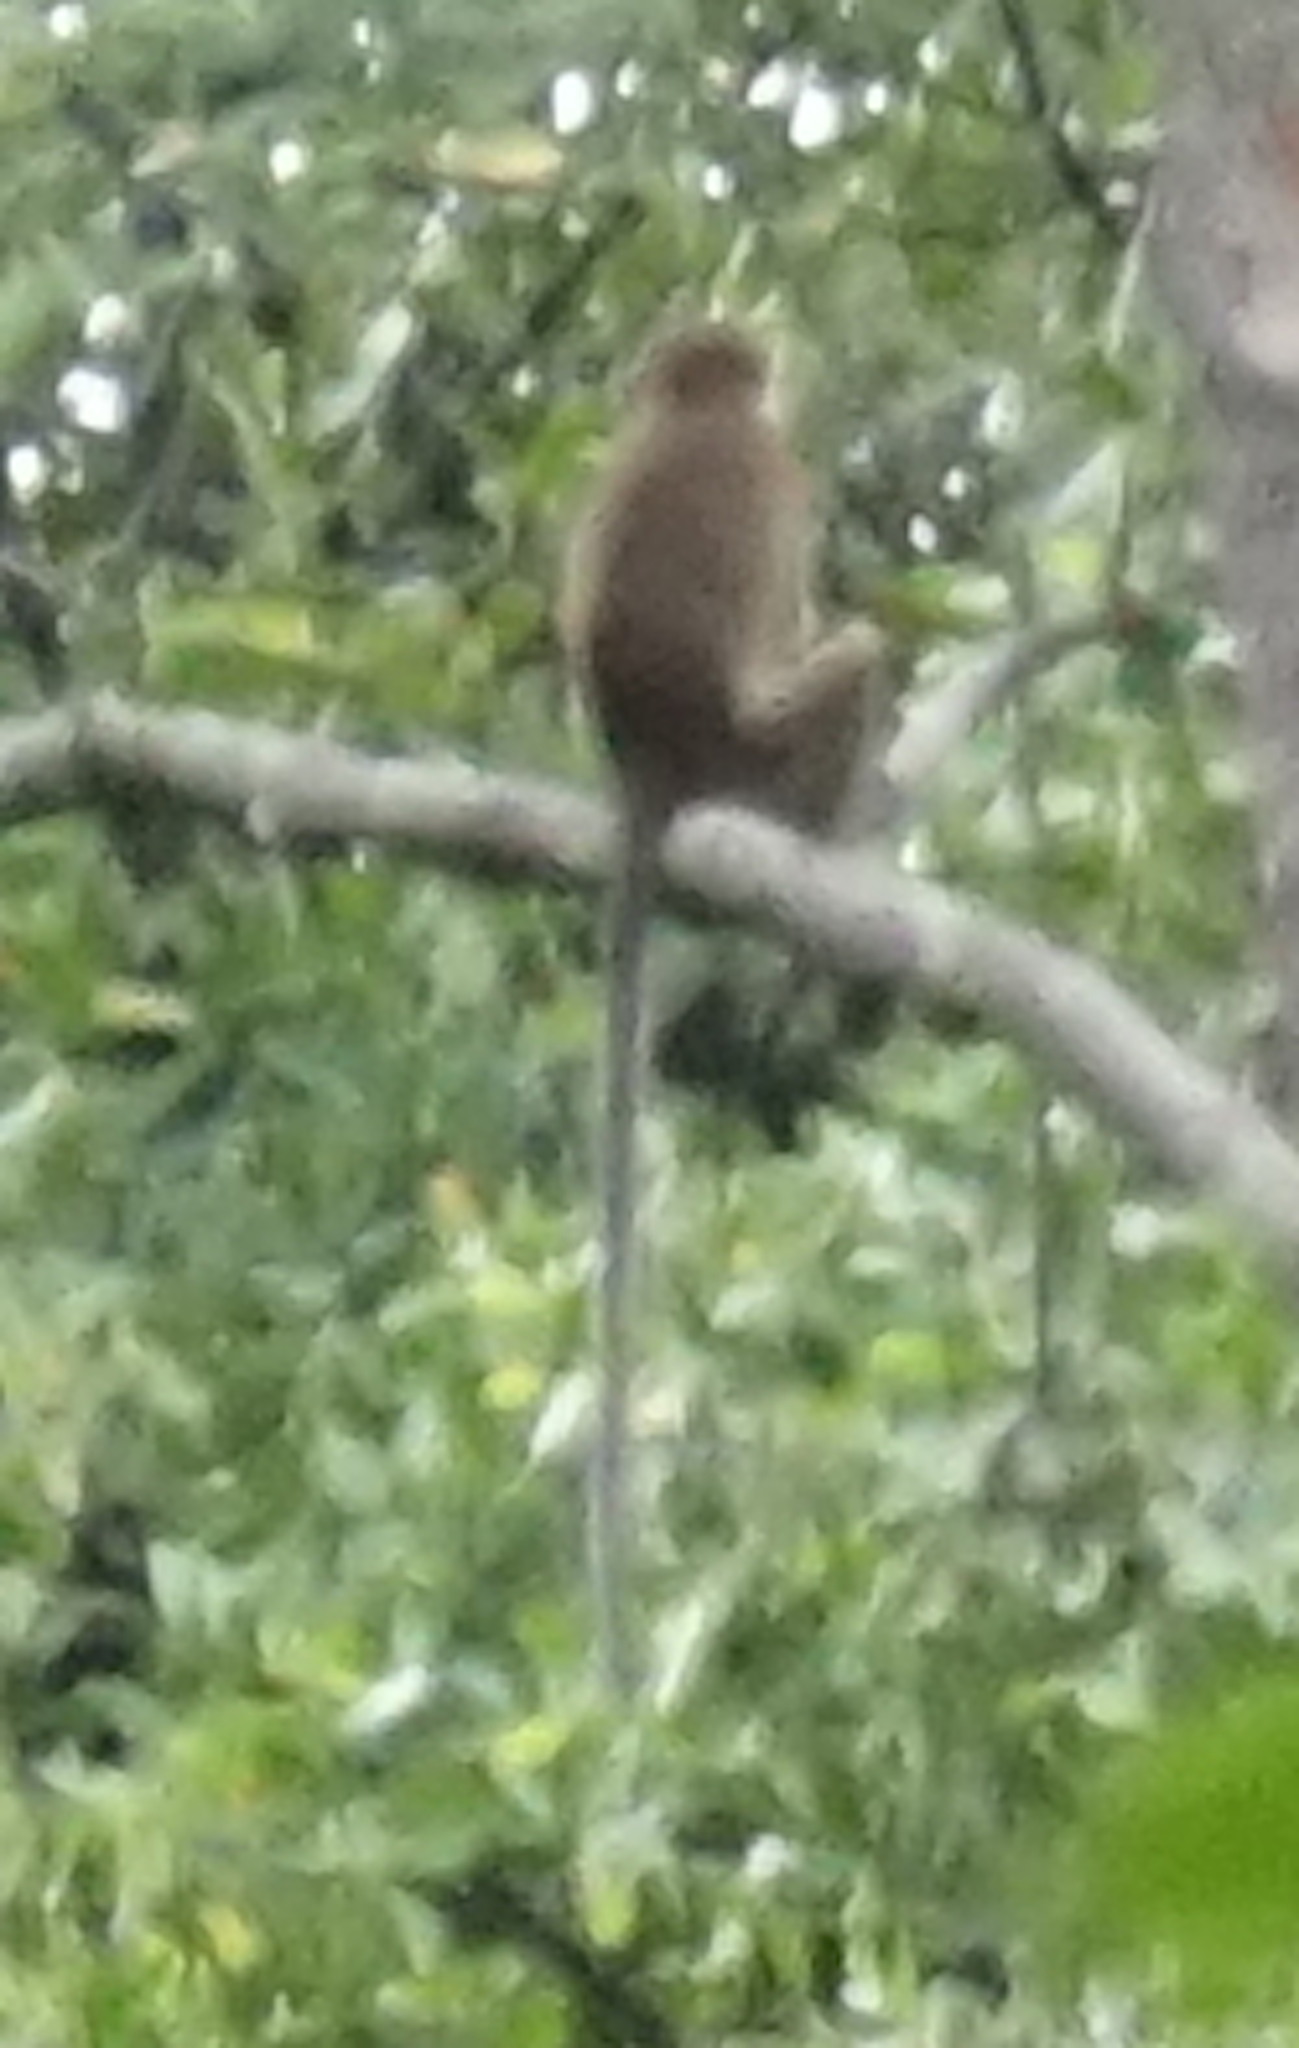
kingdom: Animalia
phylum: Chordata
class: Mammalia
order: Primates
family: Cercopithecidae
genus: Macaca
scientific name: Macaca fascicularis
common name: Crab-eating macaque
